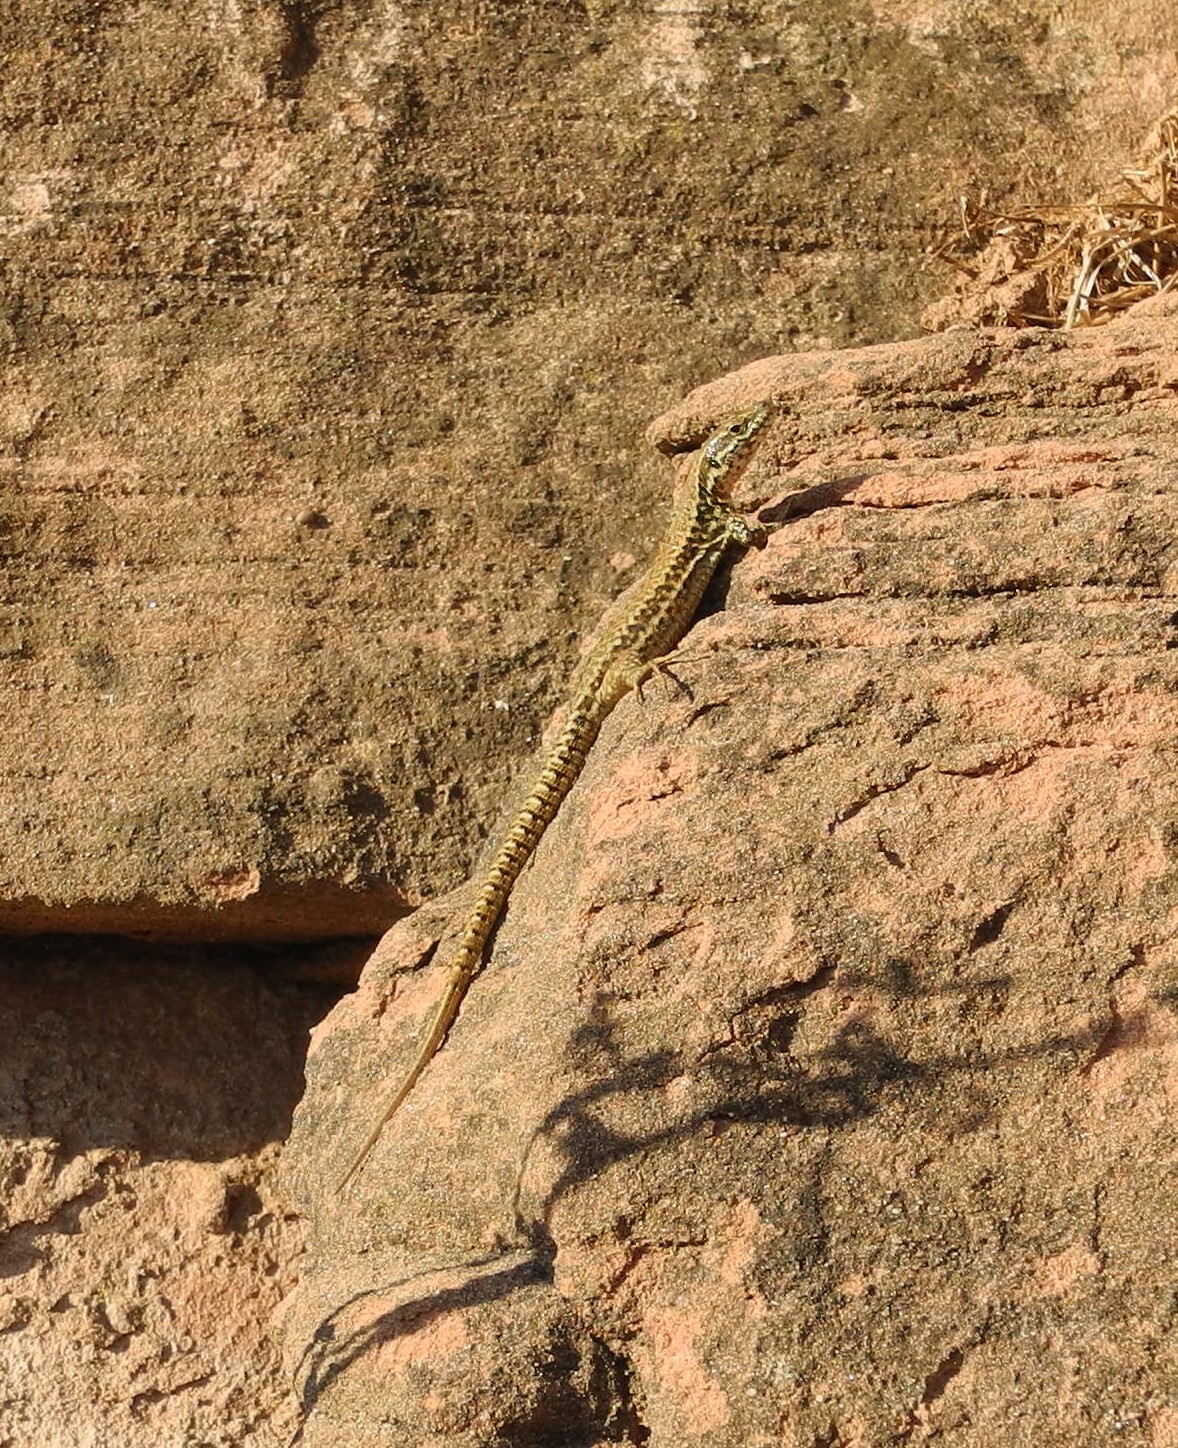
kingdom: Animalia
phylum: Chordata
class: Squamata
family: Lacertidae
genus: Podarcis
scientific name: Podarcis muralis
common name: Common wall lizard
